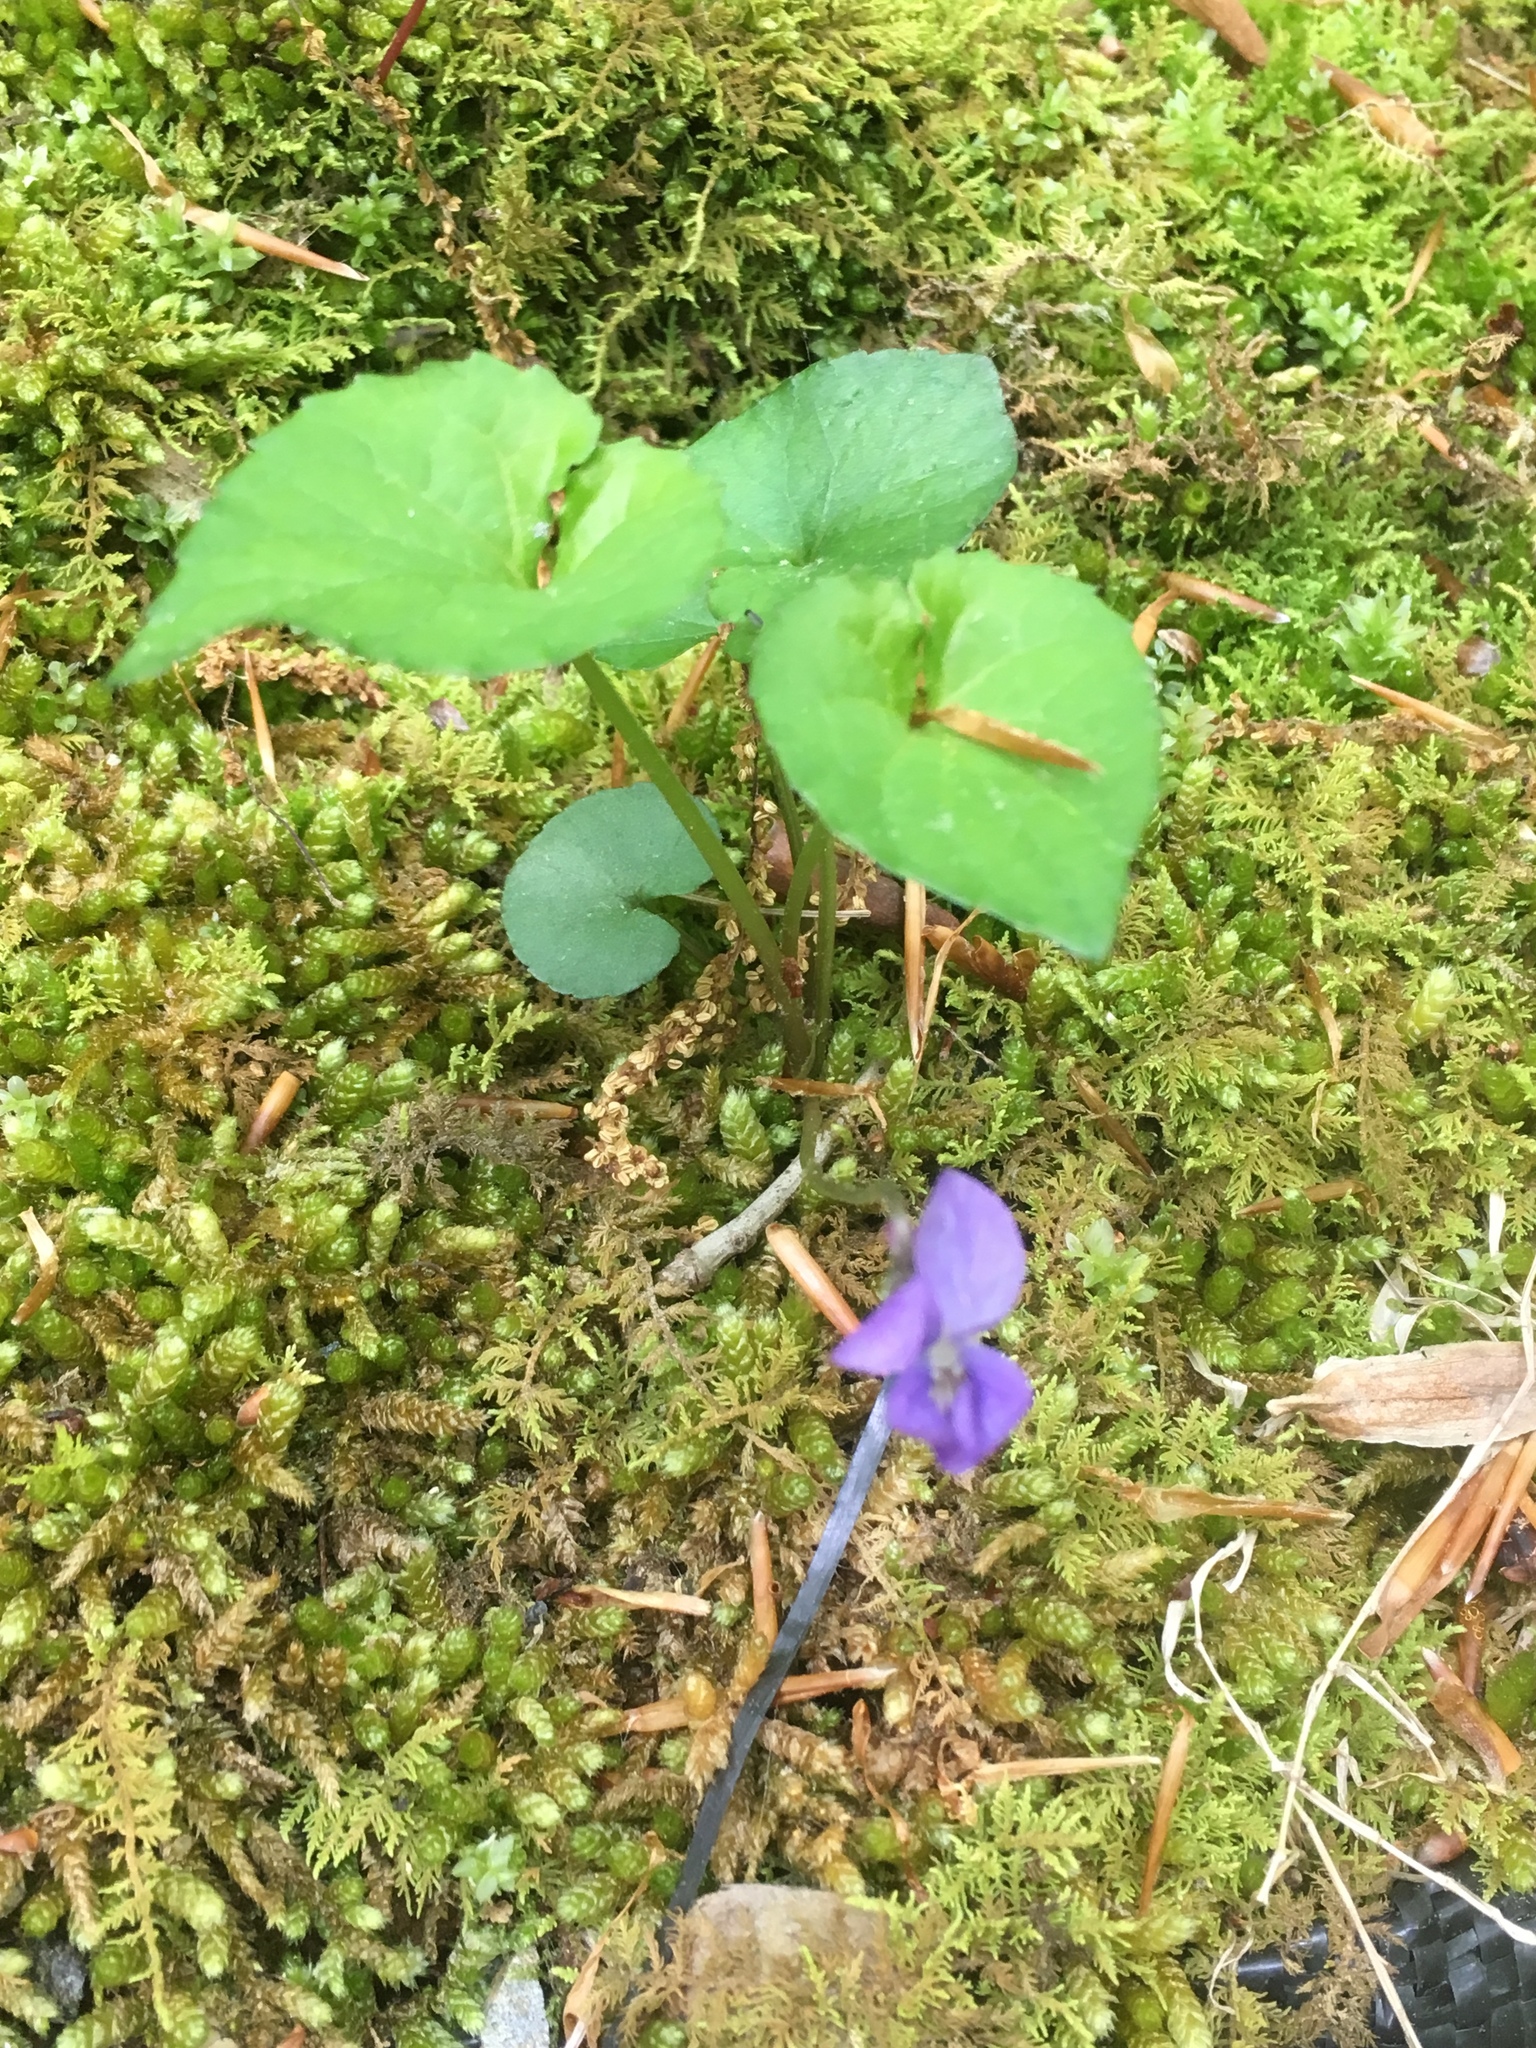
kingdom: Plantae
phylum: Tracheophyta
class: Magnoliopsida
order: Malpighiales
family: Violaceae
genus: Viola
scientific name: Viola sororia
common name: Dooryard violet
